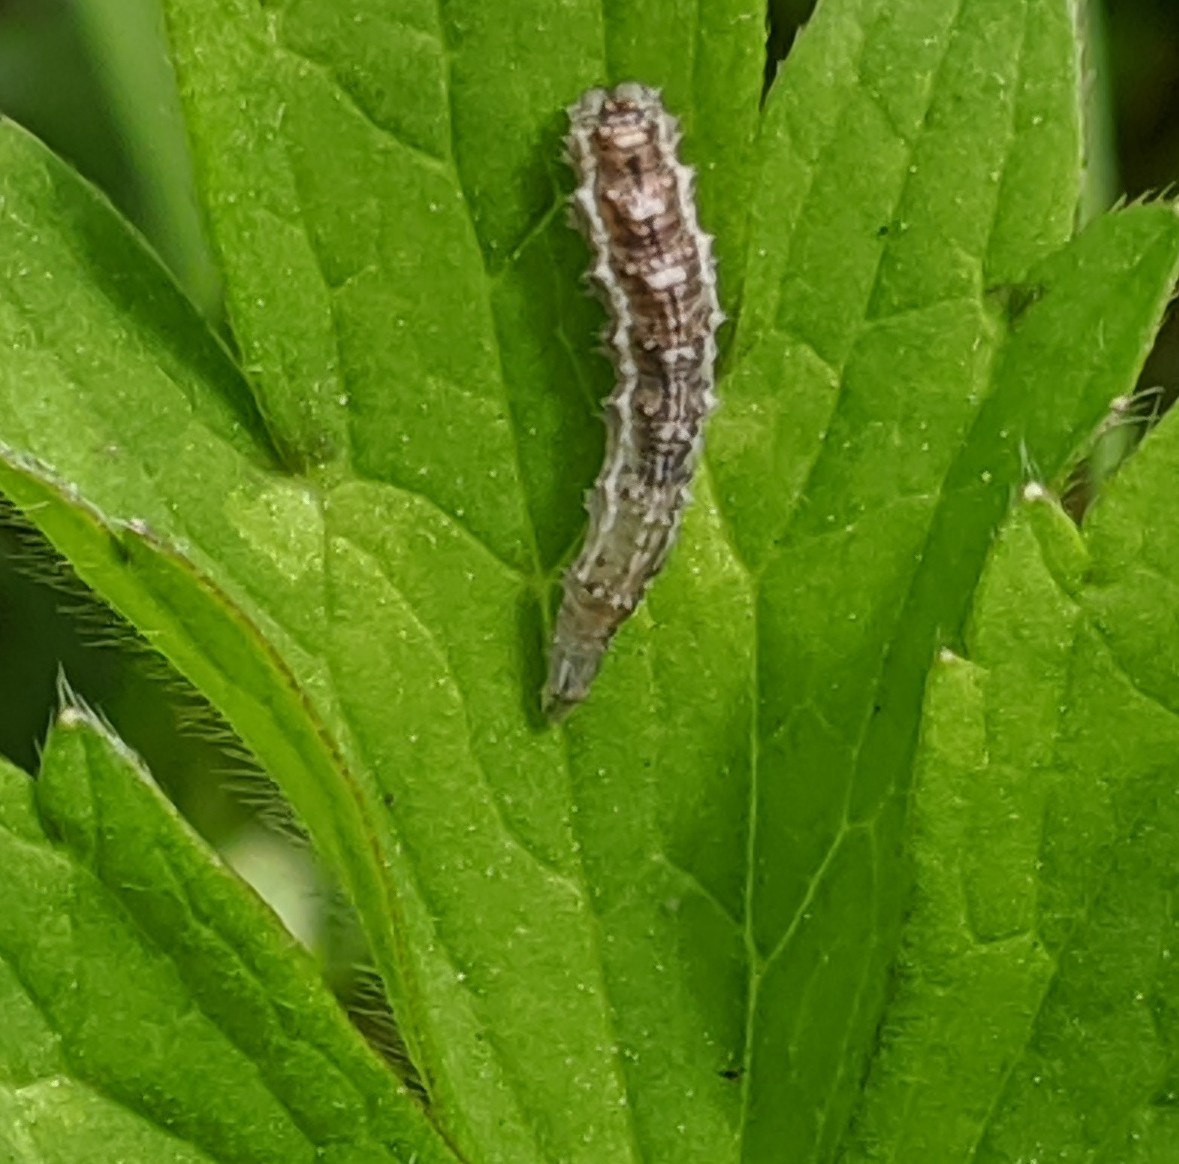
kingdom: Animalia
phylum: Arthropoda
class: Insecta
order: Diptera
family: Syrphidae
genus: Eupeodes
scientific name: Eupeodes
